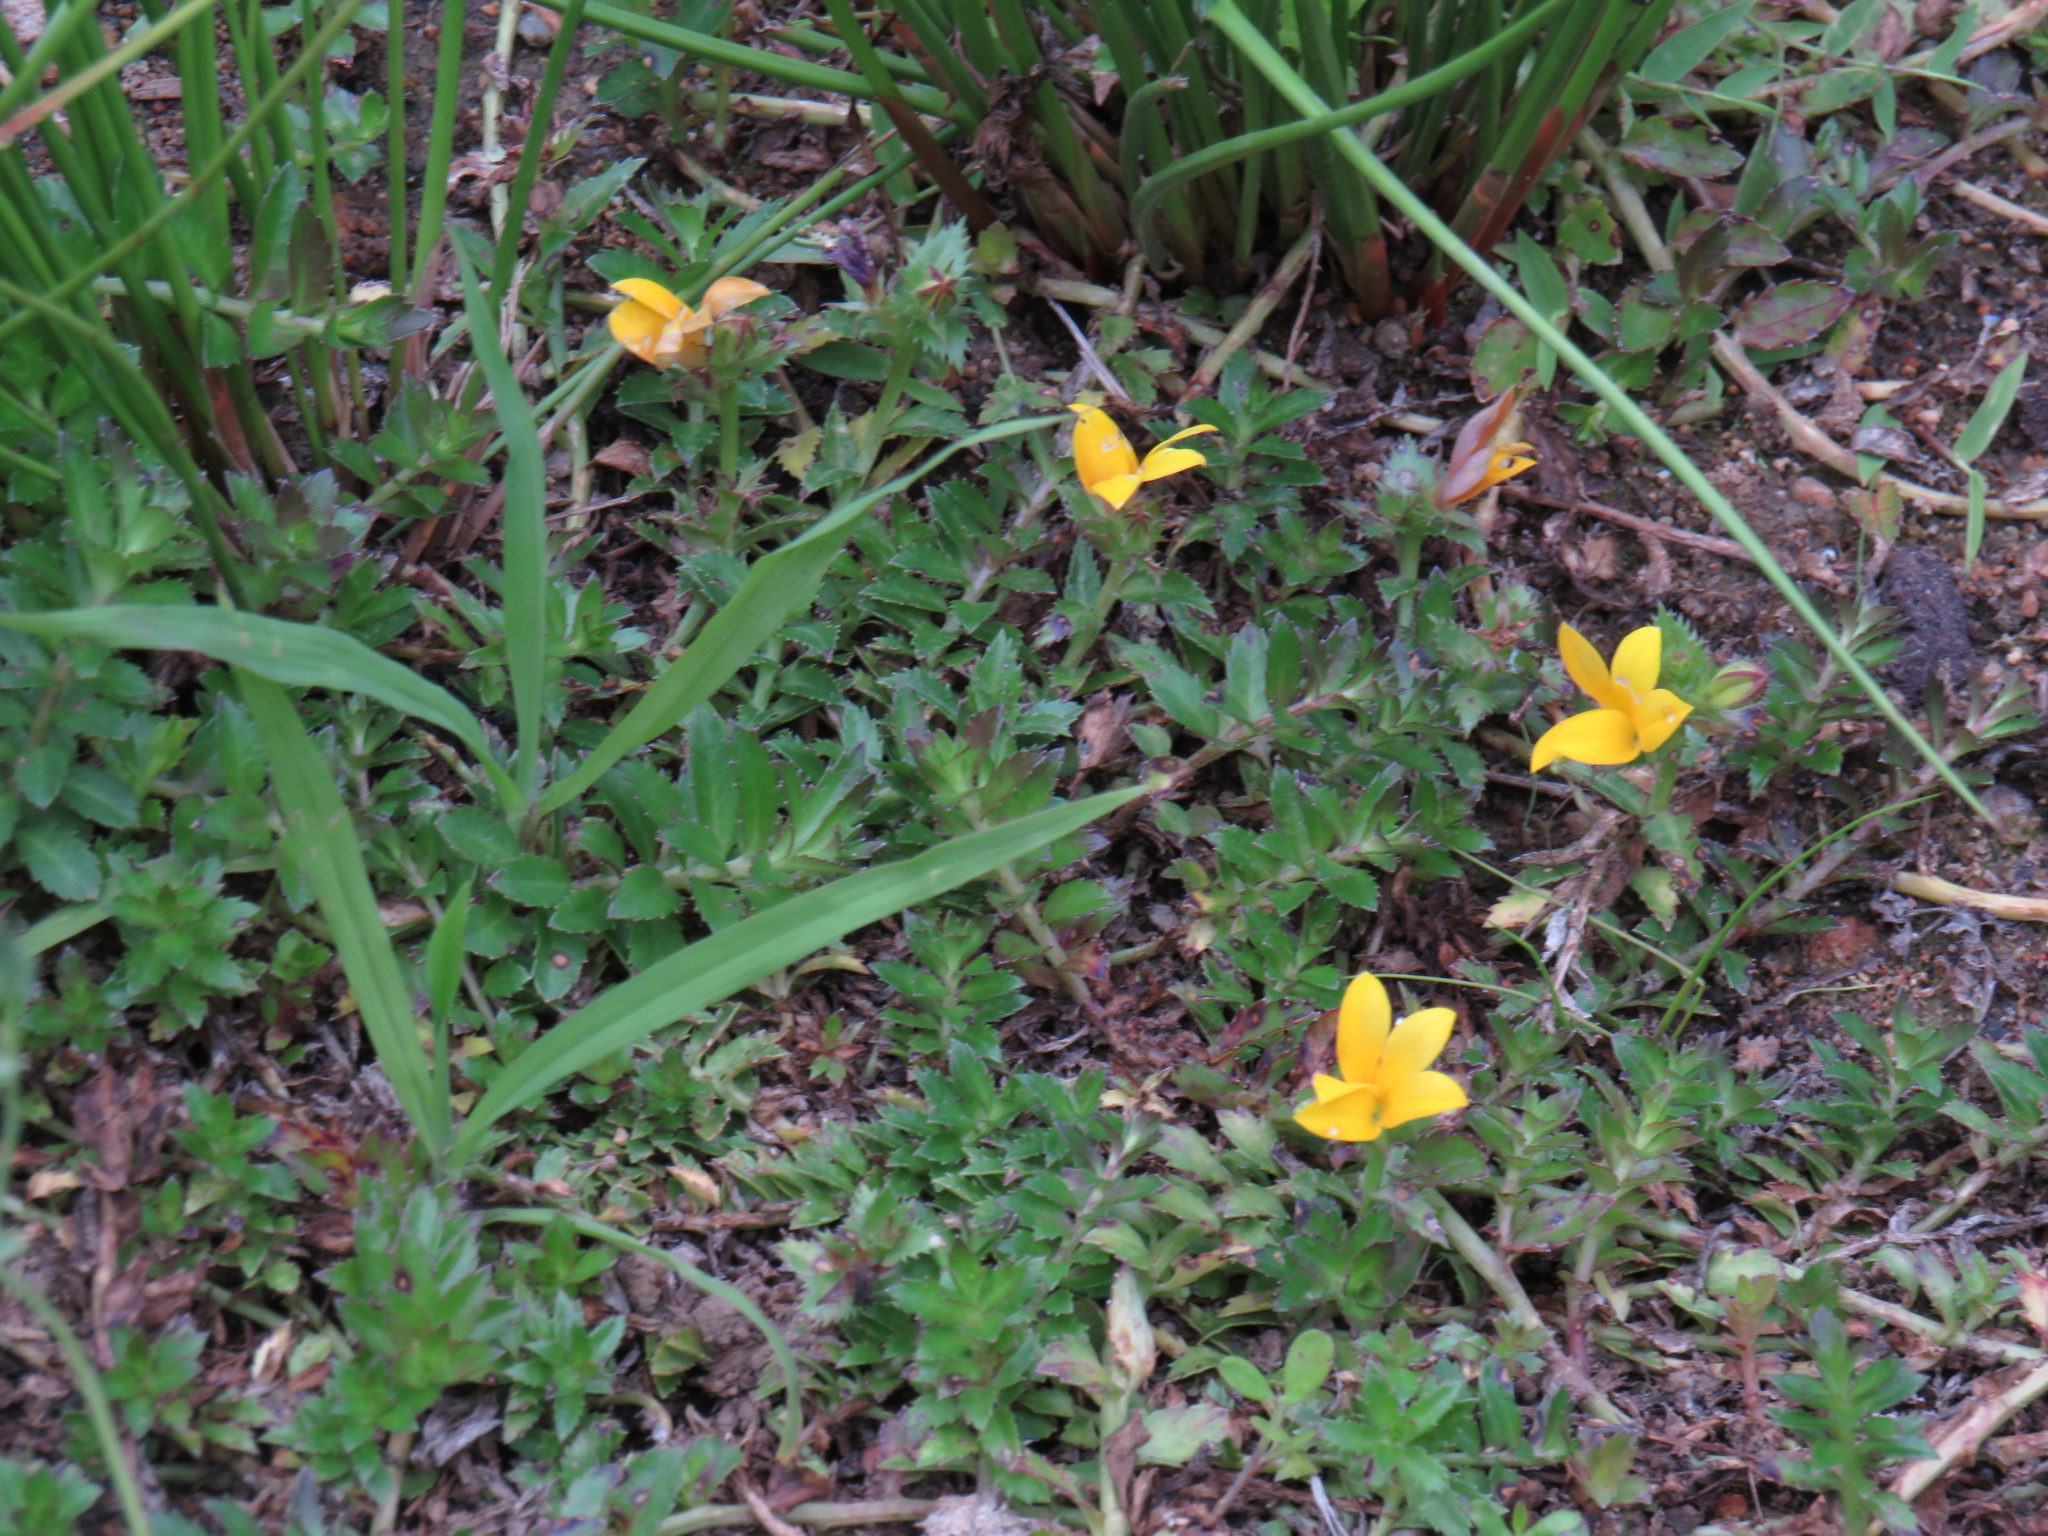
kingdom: Plantae
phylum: Tracheophyta
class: Magnoliopsida
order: Asterales
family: Campanulaceae
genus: Monopsis
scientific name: Monopsis lutea
